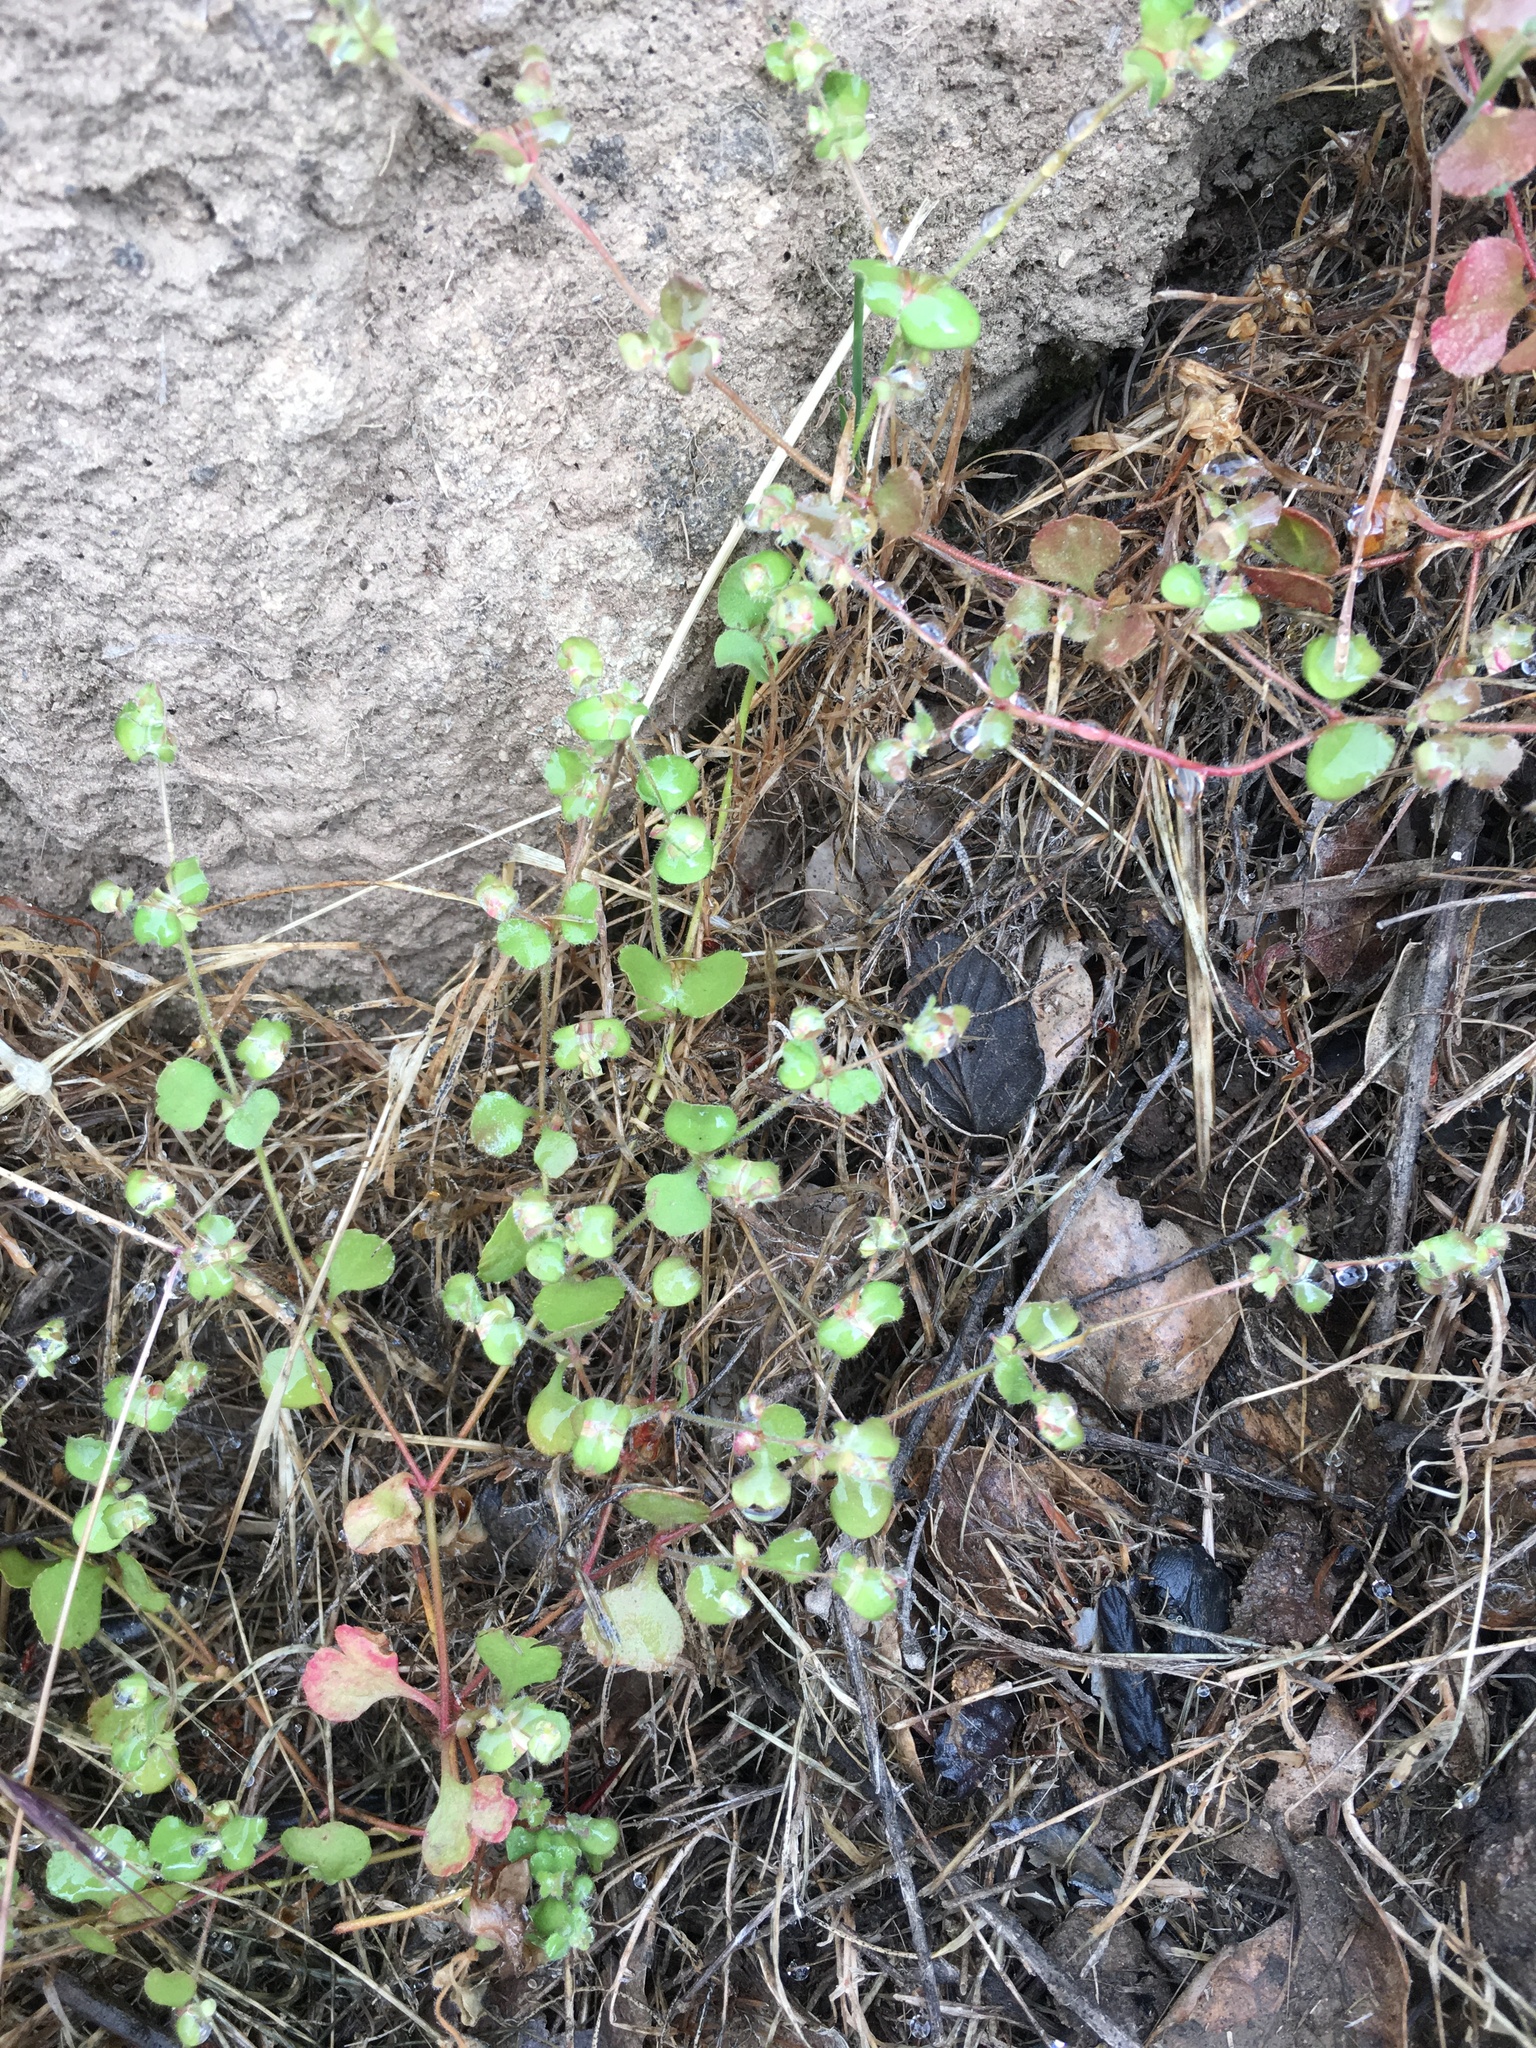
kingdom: Plantae
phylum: Tracheophyta
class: Magnoliopsida
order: Caryophyllales
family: Polygonaceae
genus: Pterostegia
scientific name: Pterostegia drymarioides
